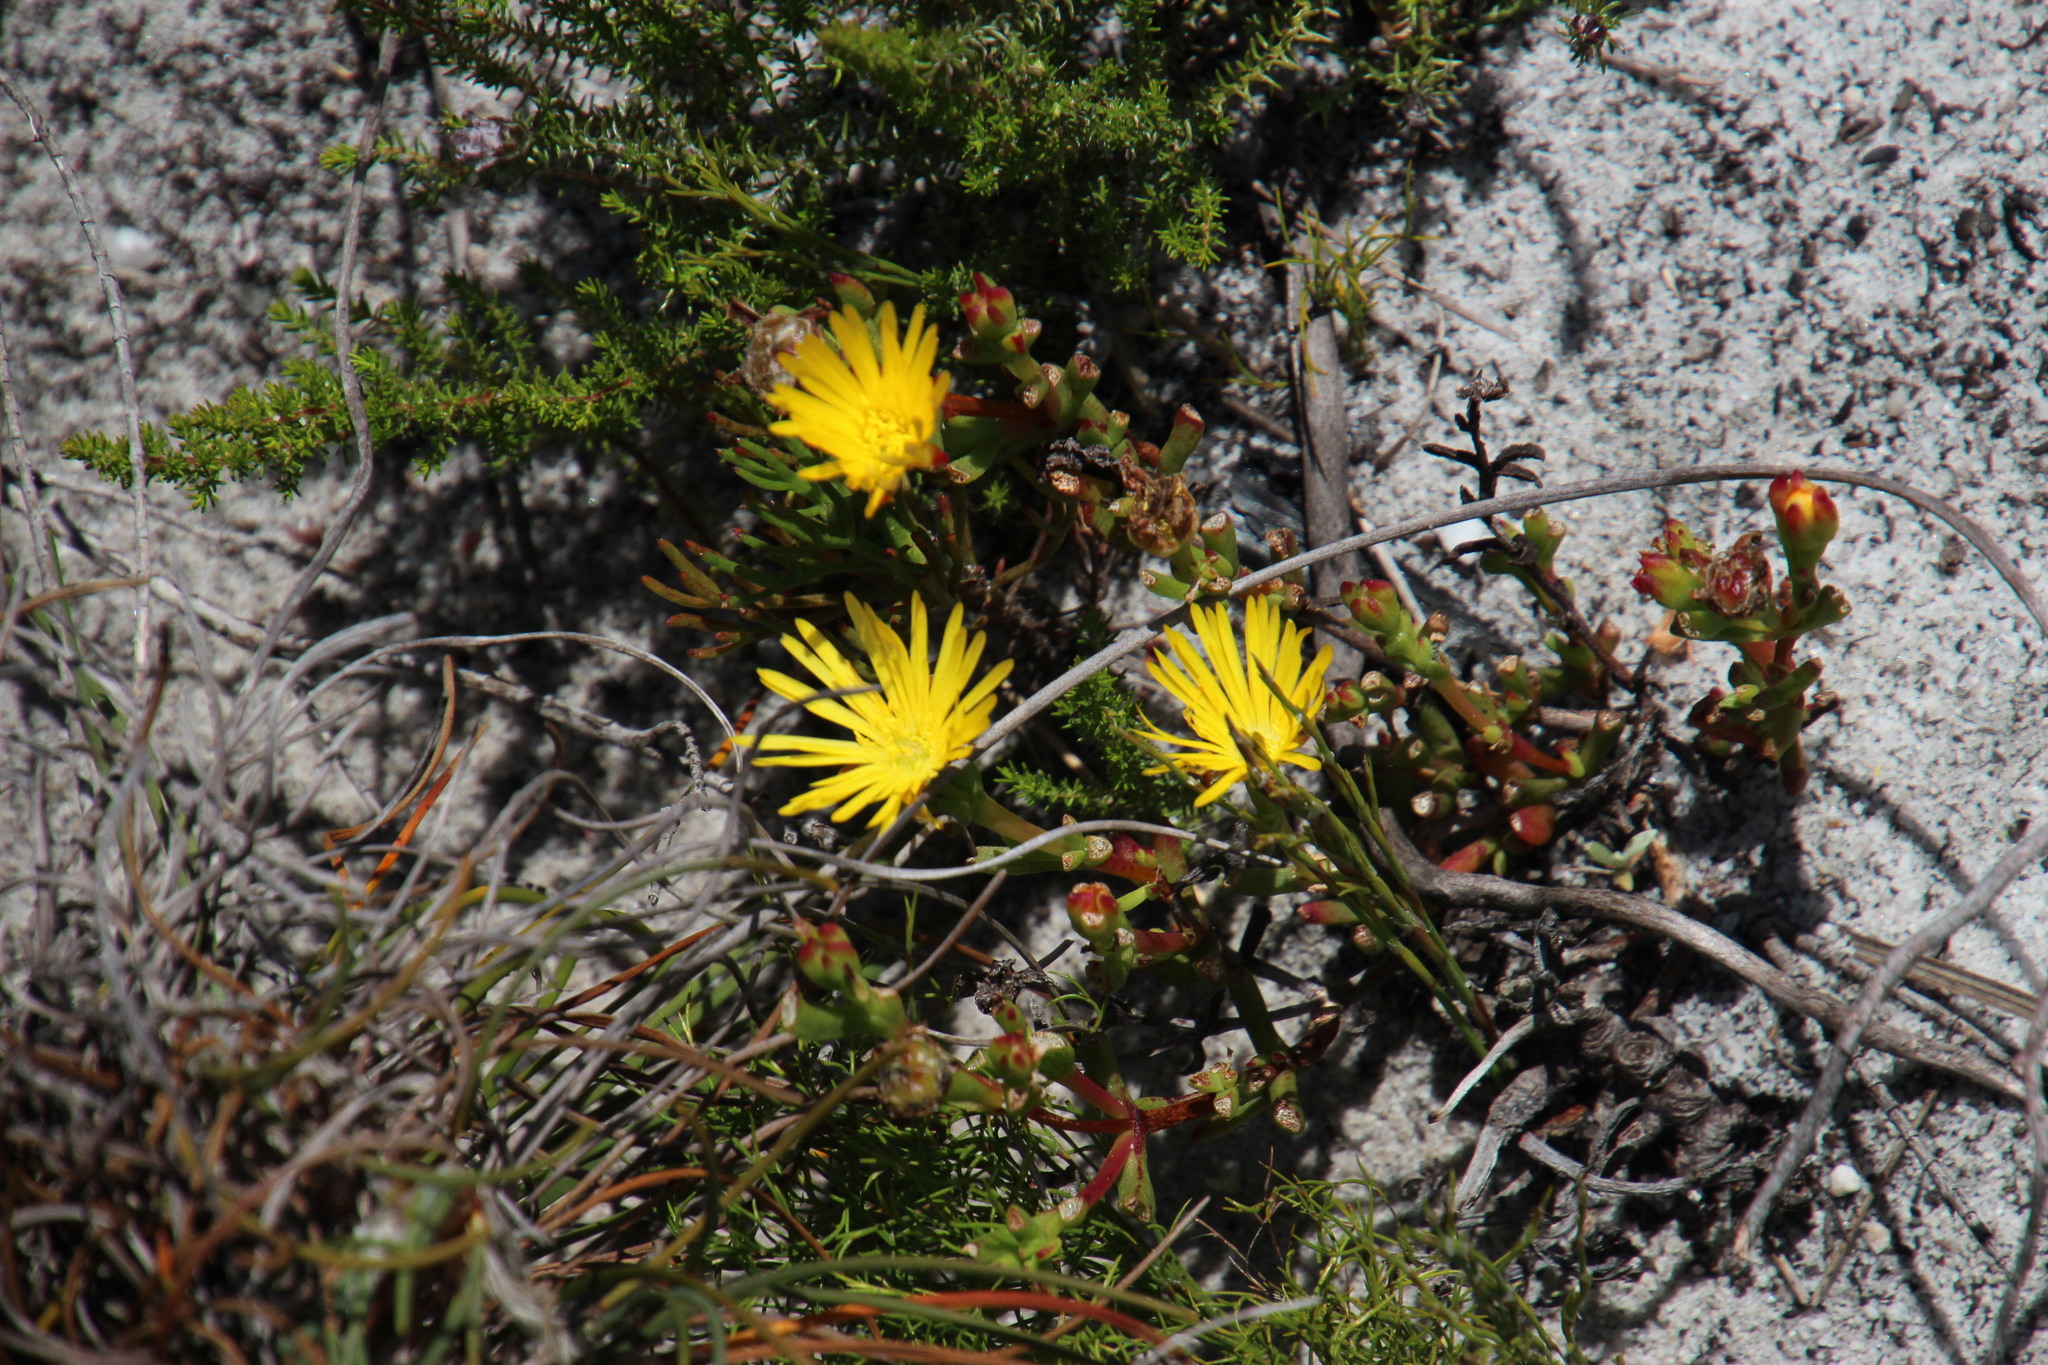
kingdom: Plantae
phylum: Tracheophyta
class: Magnoliopsida
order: Caryophyllales
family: Aizoaceae
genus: Lampranthus
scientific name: Lampranthus promontorii
